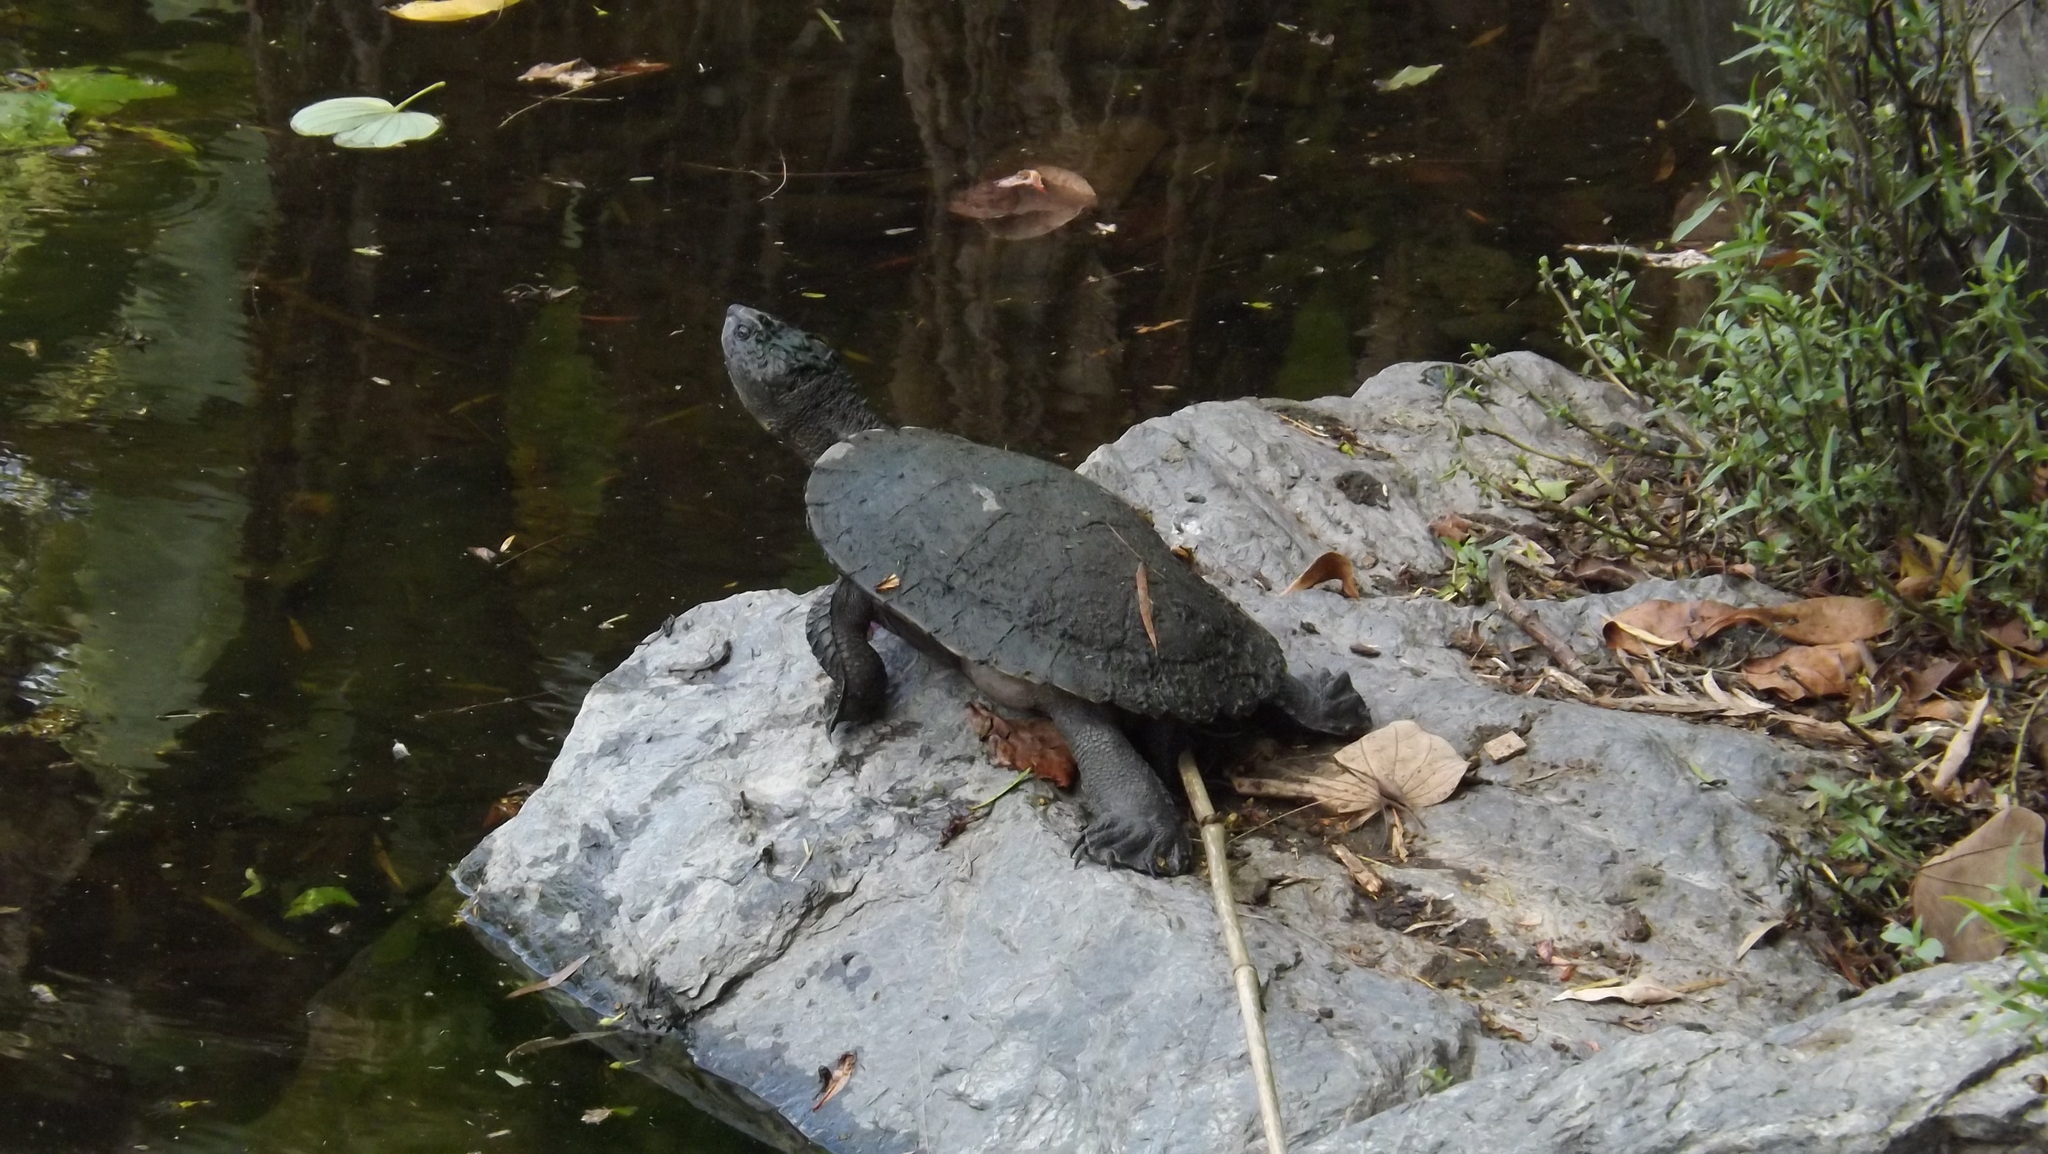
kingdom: Animalia
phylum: Chordata
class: Testudines
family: Chelidae
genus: Myuchelys
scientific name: Myuchelys latisternum
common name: Serrated snapping turtle
